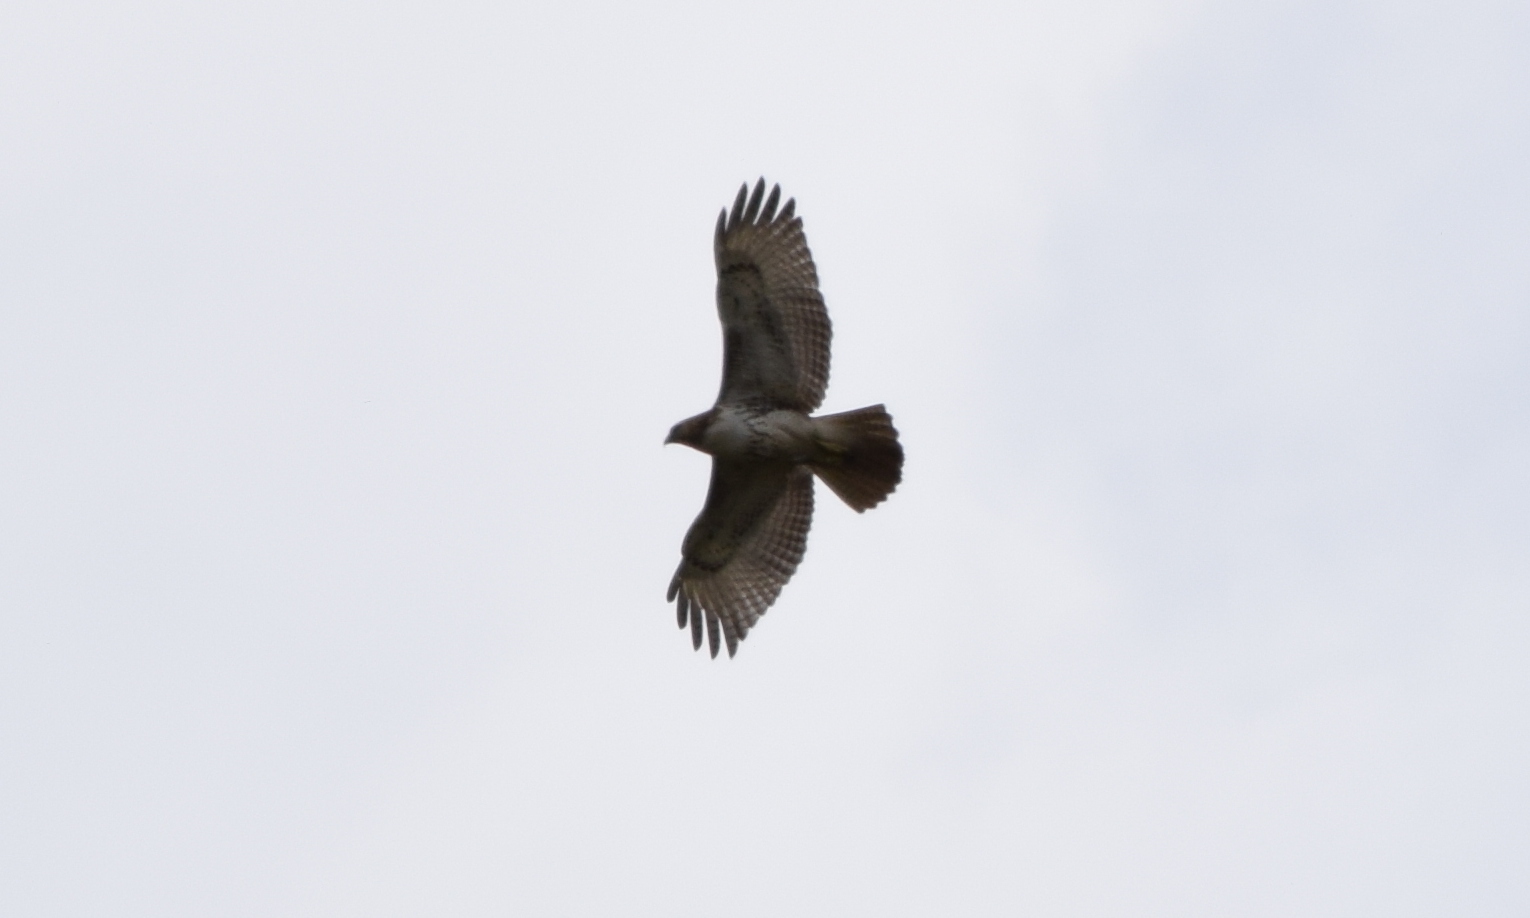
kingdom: Animalia
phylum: Chordata
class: Aves
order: Accipitriformes
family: Accipitridae
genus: Buteo
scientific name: Buteo jamaicensis
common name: Red-tailed hawk
